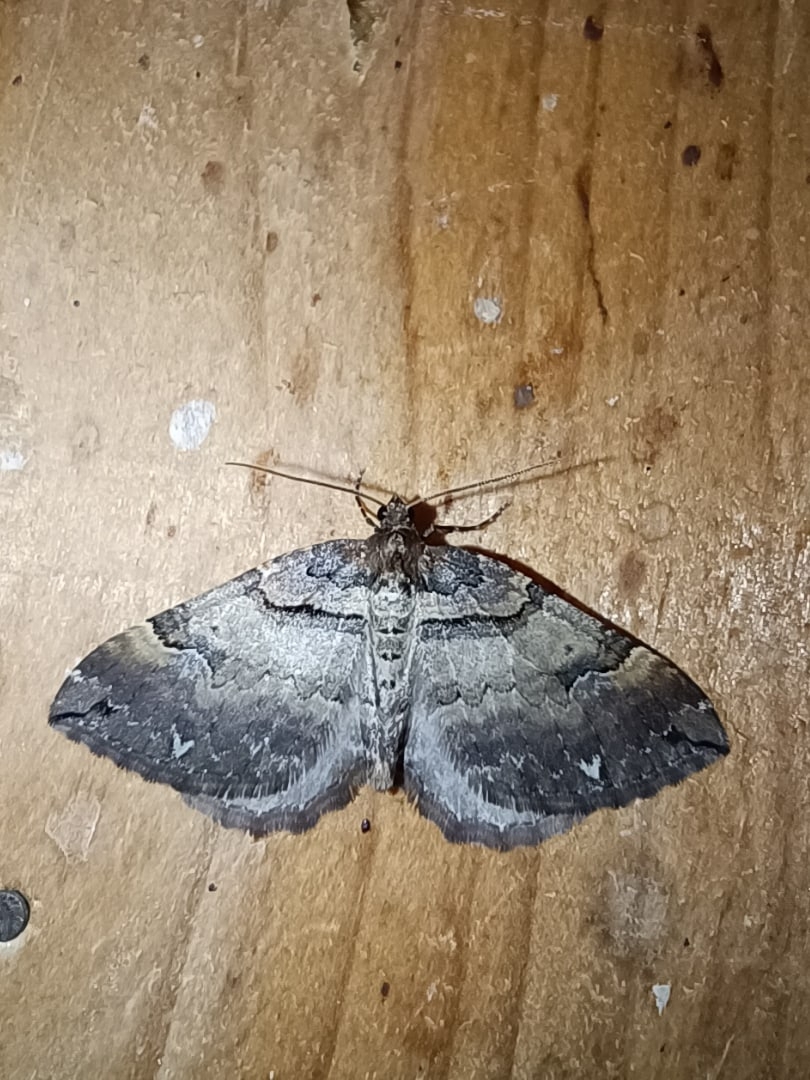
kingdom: Animalia
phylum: Arthropoda
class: Insecta
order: Lepidoptera
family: Geometridae
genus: Anticlea
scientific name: Anticlea badiata
